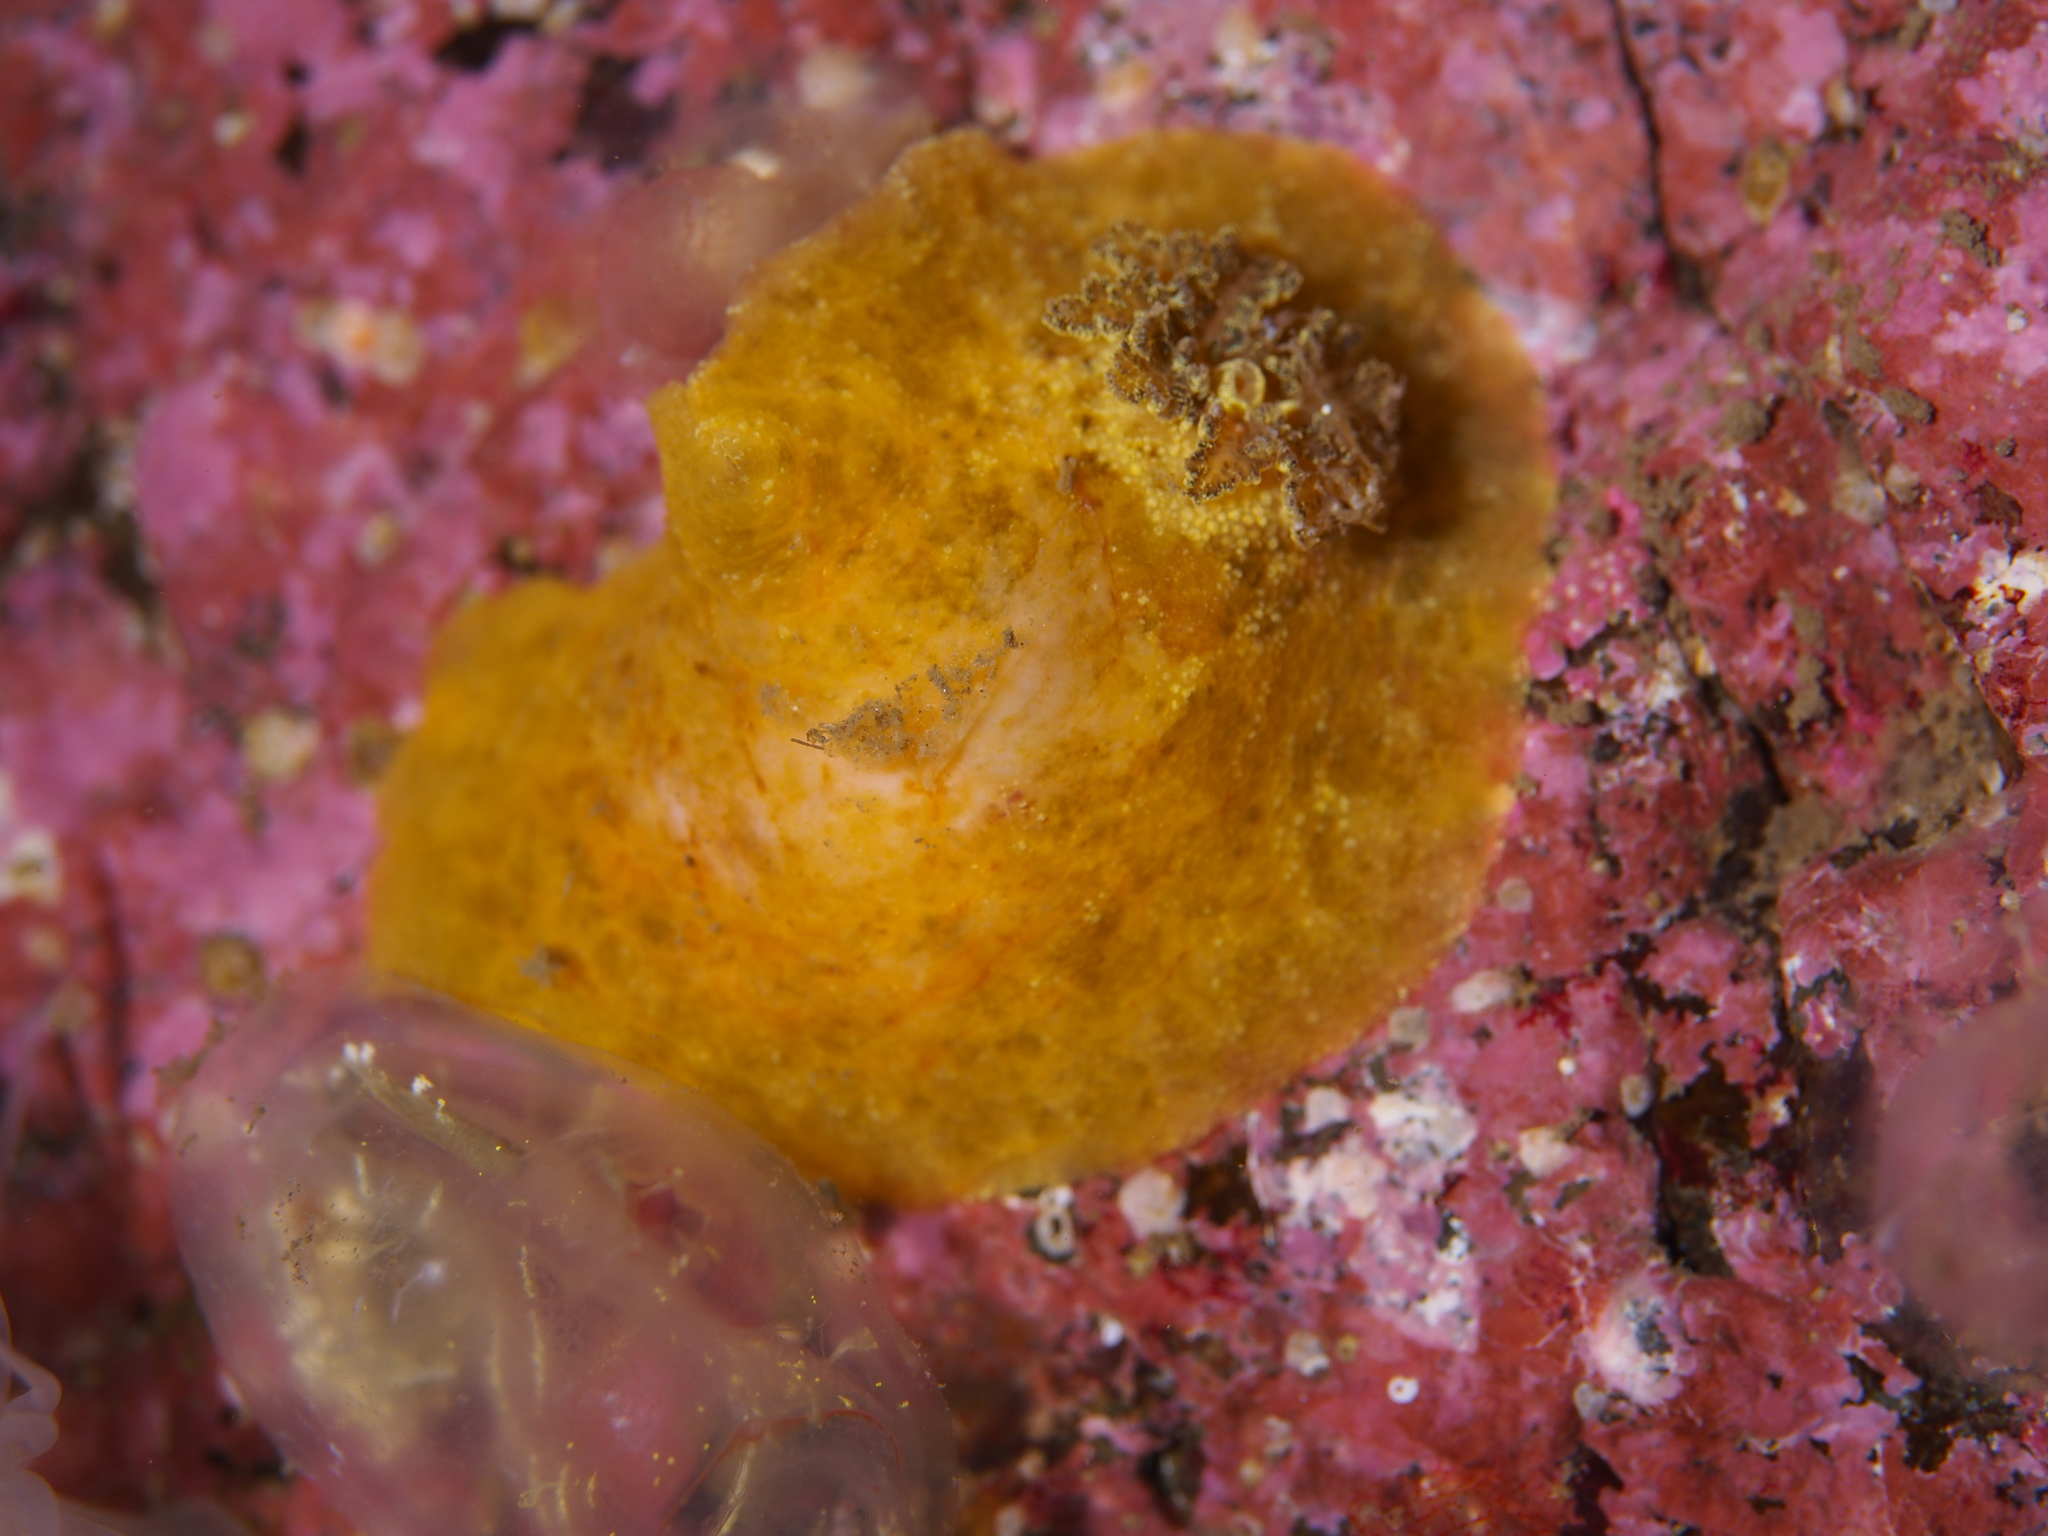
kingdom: Animalia
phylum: Mollusca
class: Gastropoda
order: Nudibranchia
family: Dorididae
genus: Doris
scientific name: Doris pseudoargus
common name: Sea lemon
